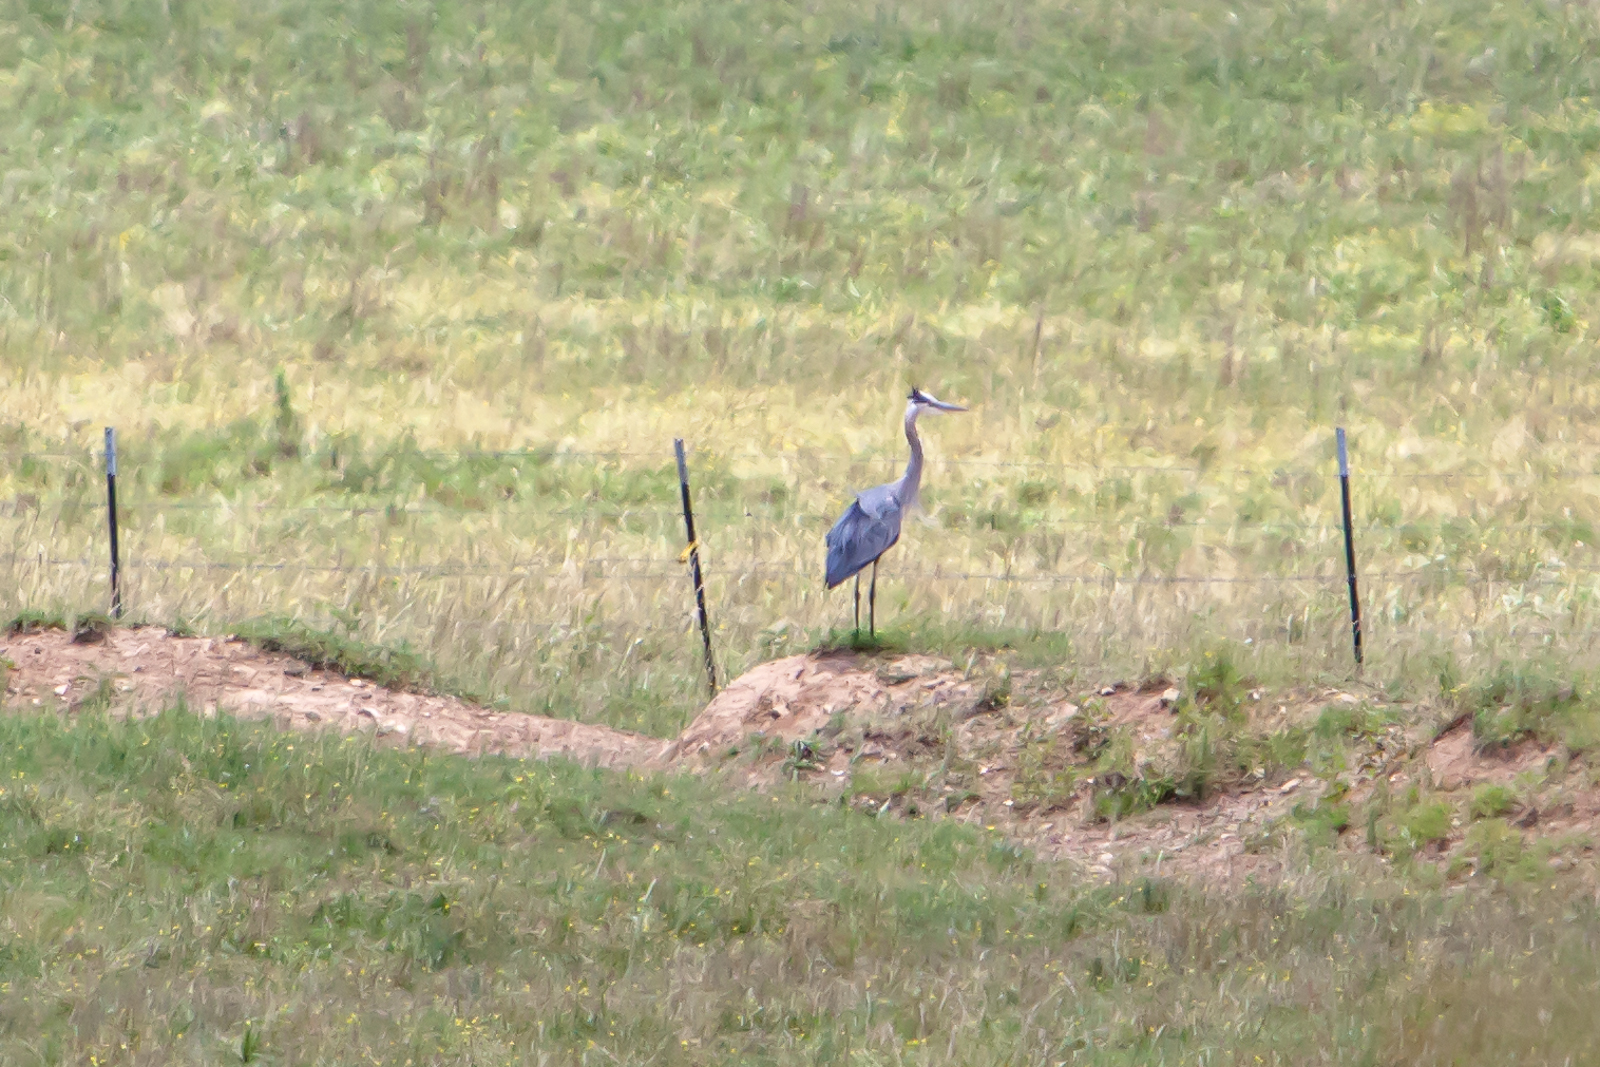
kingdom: Animalia
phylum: Chordata
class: Aves
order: Pelecaniformes
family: Ardeidae
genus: Ardea
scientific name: Ardea herodias
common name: Great blue heron
